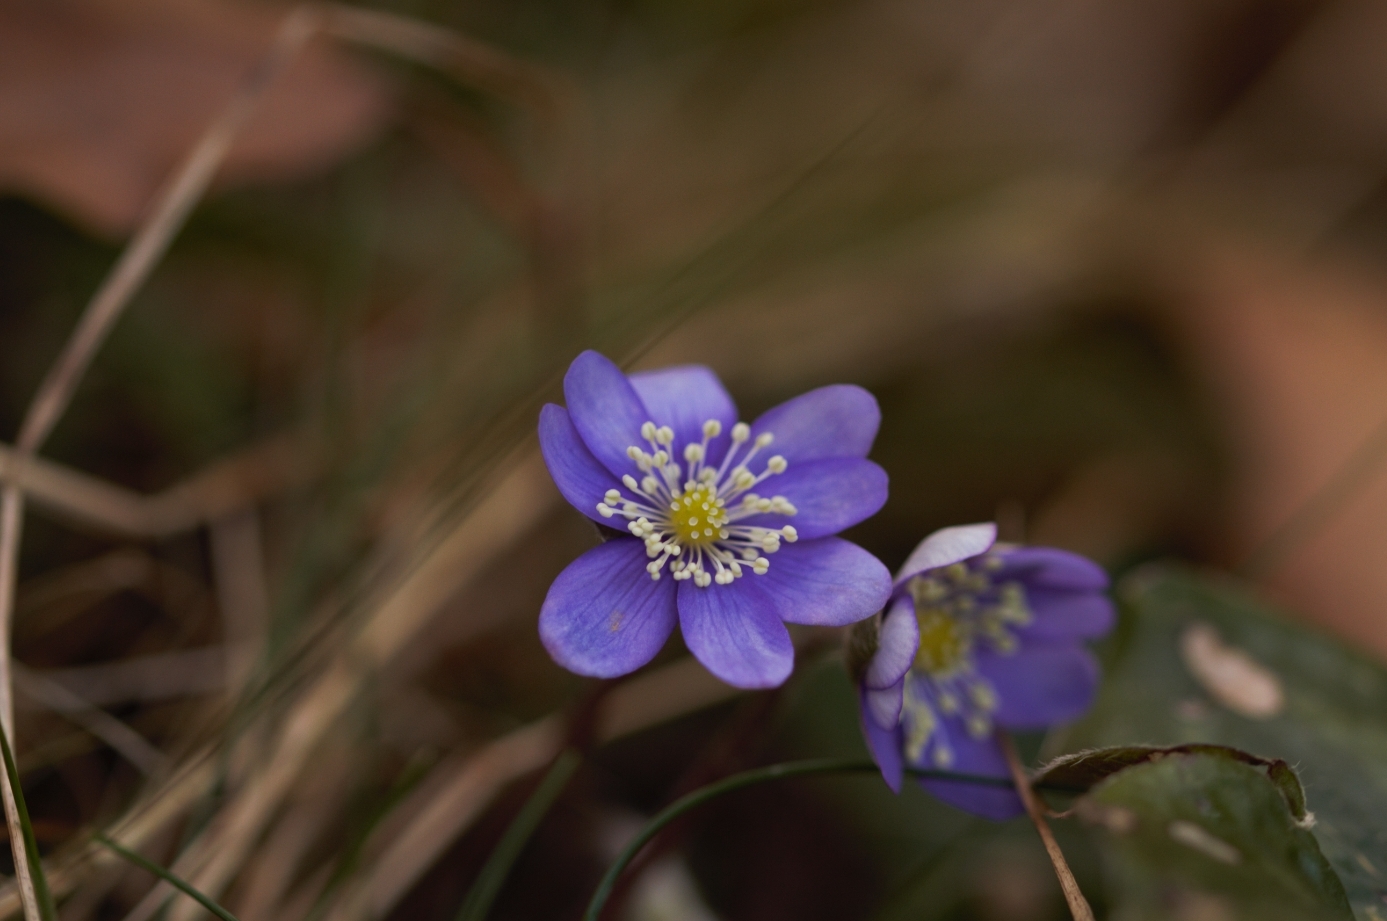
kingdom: Plantae
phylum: Tracheophyta
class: Magnoliopsida
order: Ranunculales
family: Ranunculaceae
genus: Hepatica
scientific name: Hepatica nobilis
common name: Liverleaf
